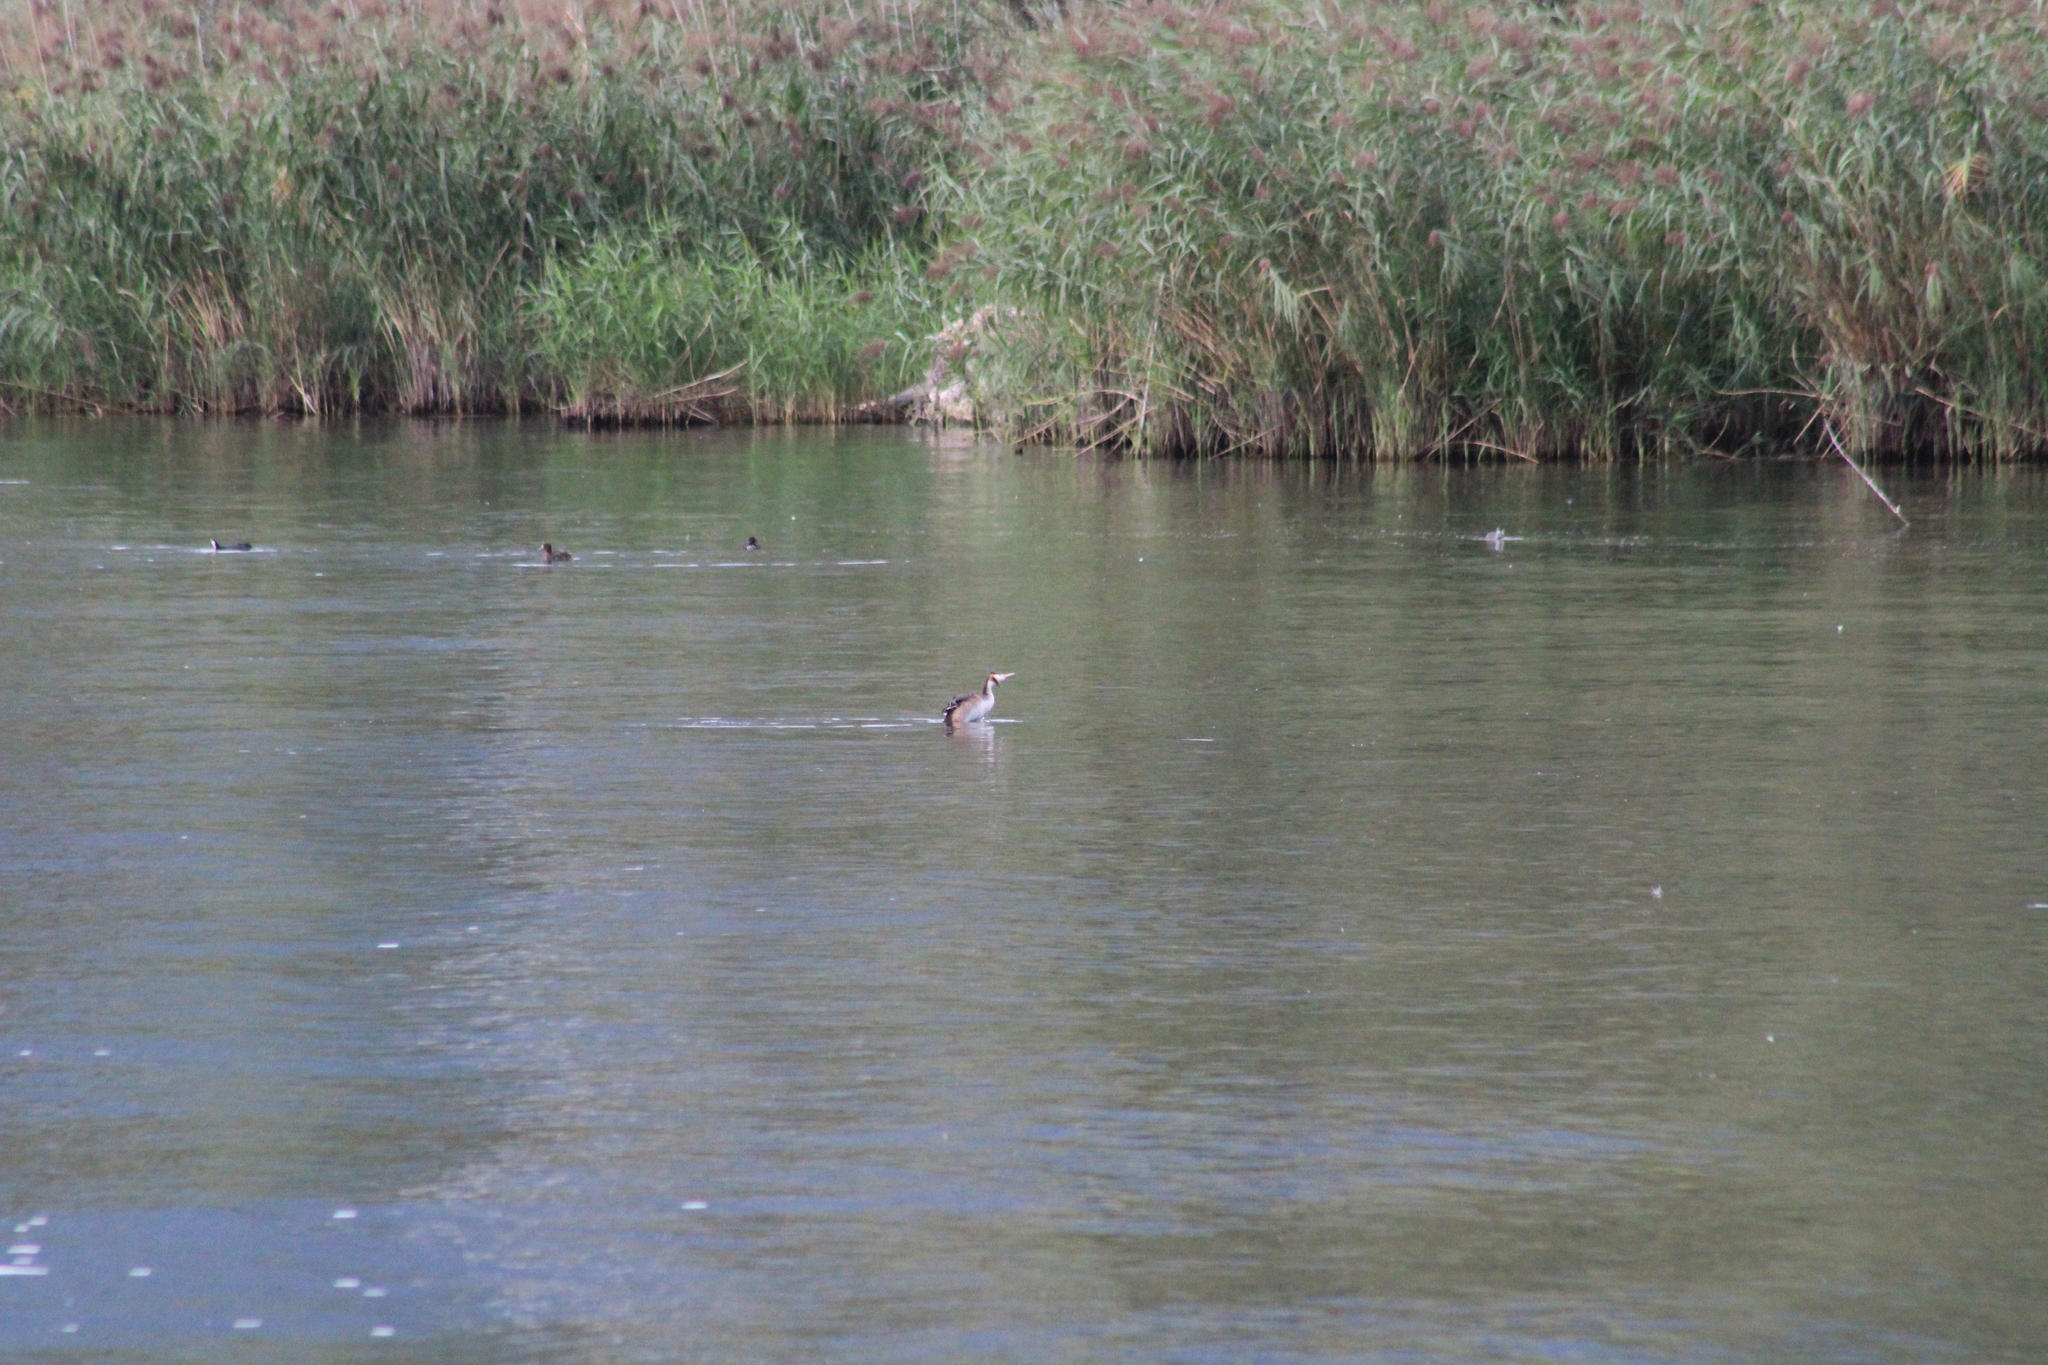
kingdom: Animalia
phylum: Chordata
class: Aves
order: Podicipediformes
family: Podicipedidae
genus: Podiceps
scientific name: Podiceps cristatus
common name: Great crested grebe
